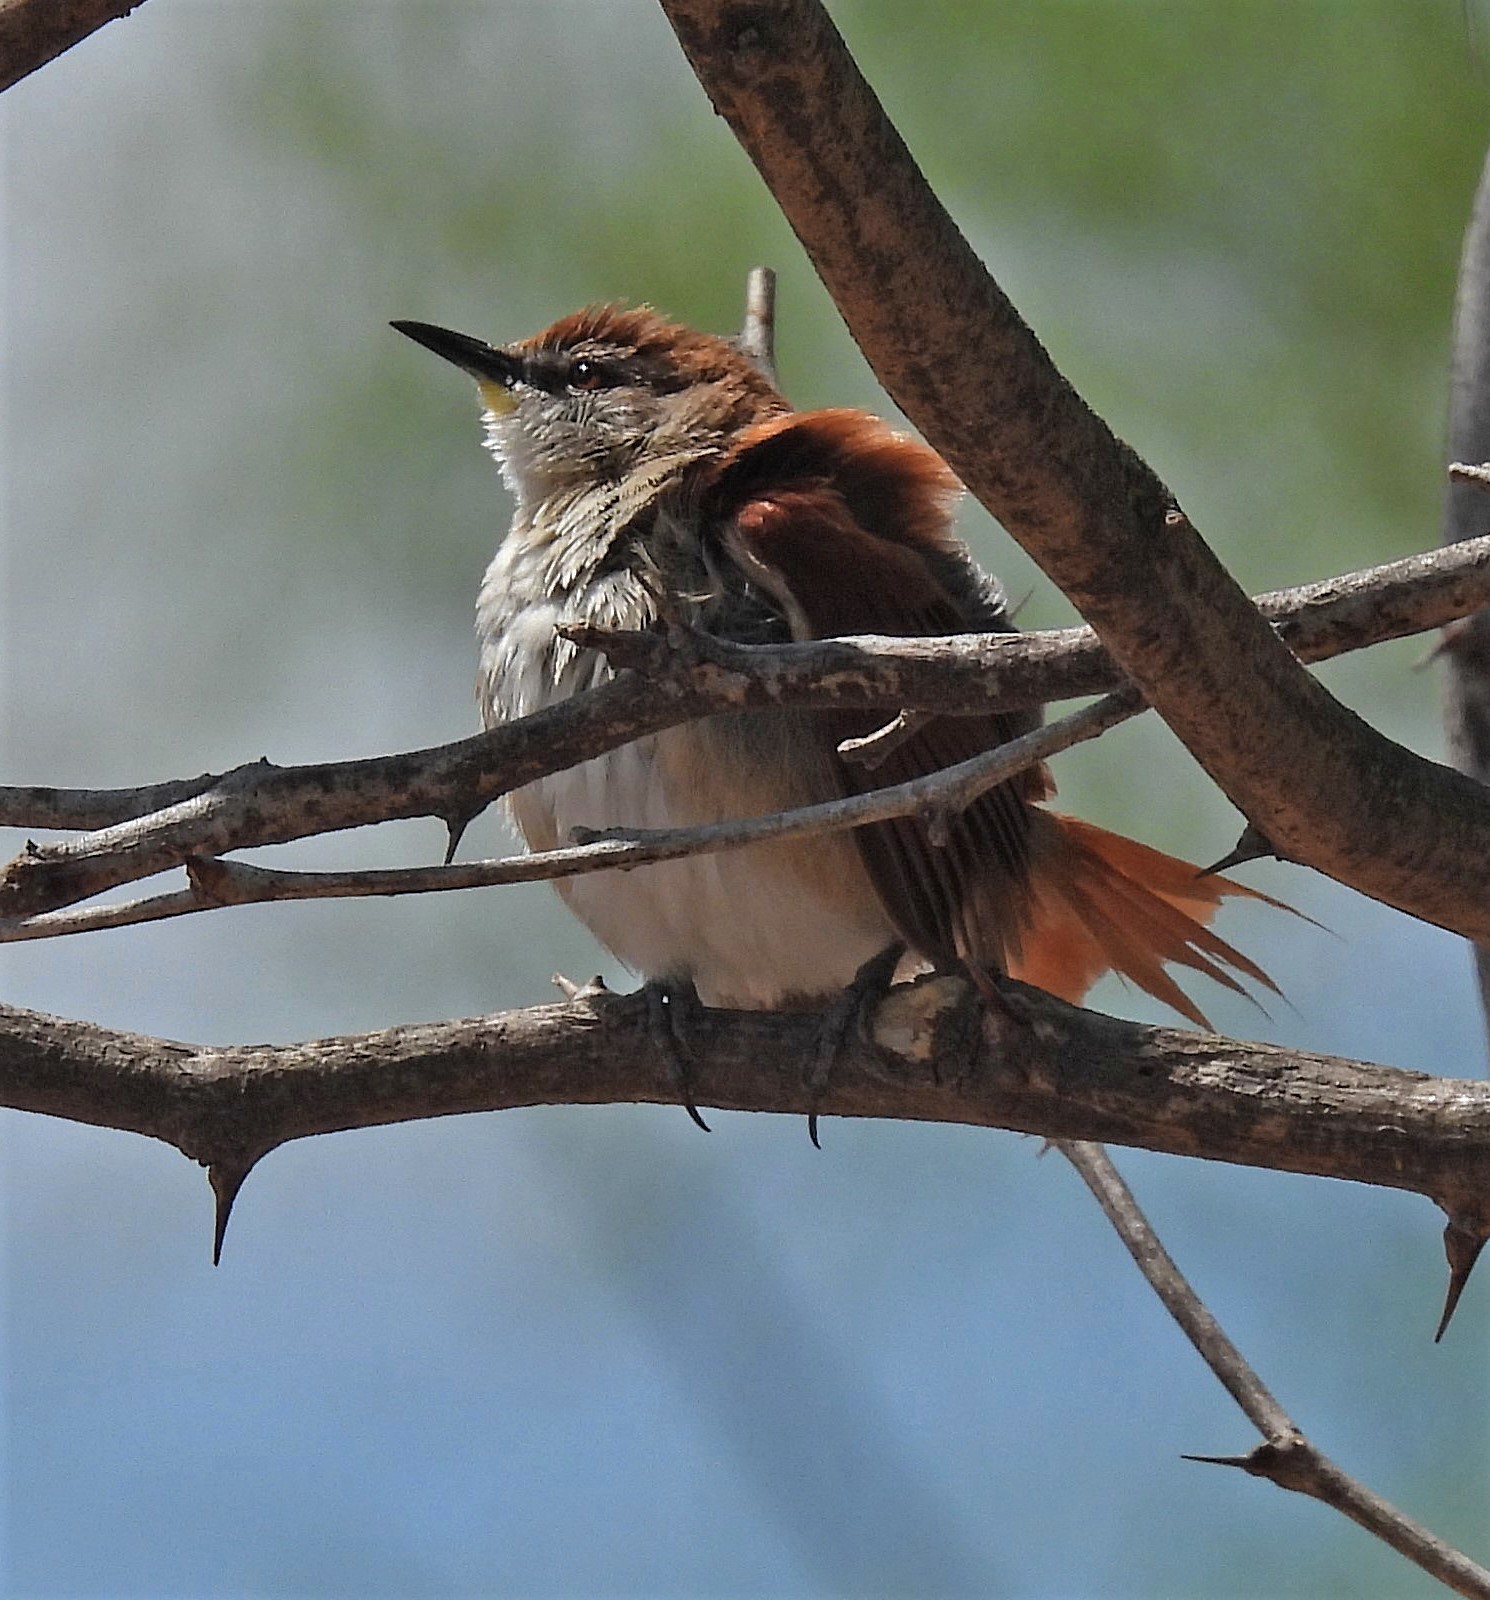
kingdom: Animalia
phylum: Chordata
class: Aves
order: Passeriformes
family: Furnariidae
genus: Certhiaxis
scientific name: Certhiaxis cinnamomeus
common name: Yellow-chinned spinetail
